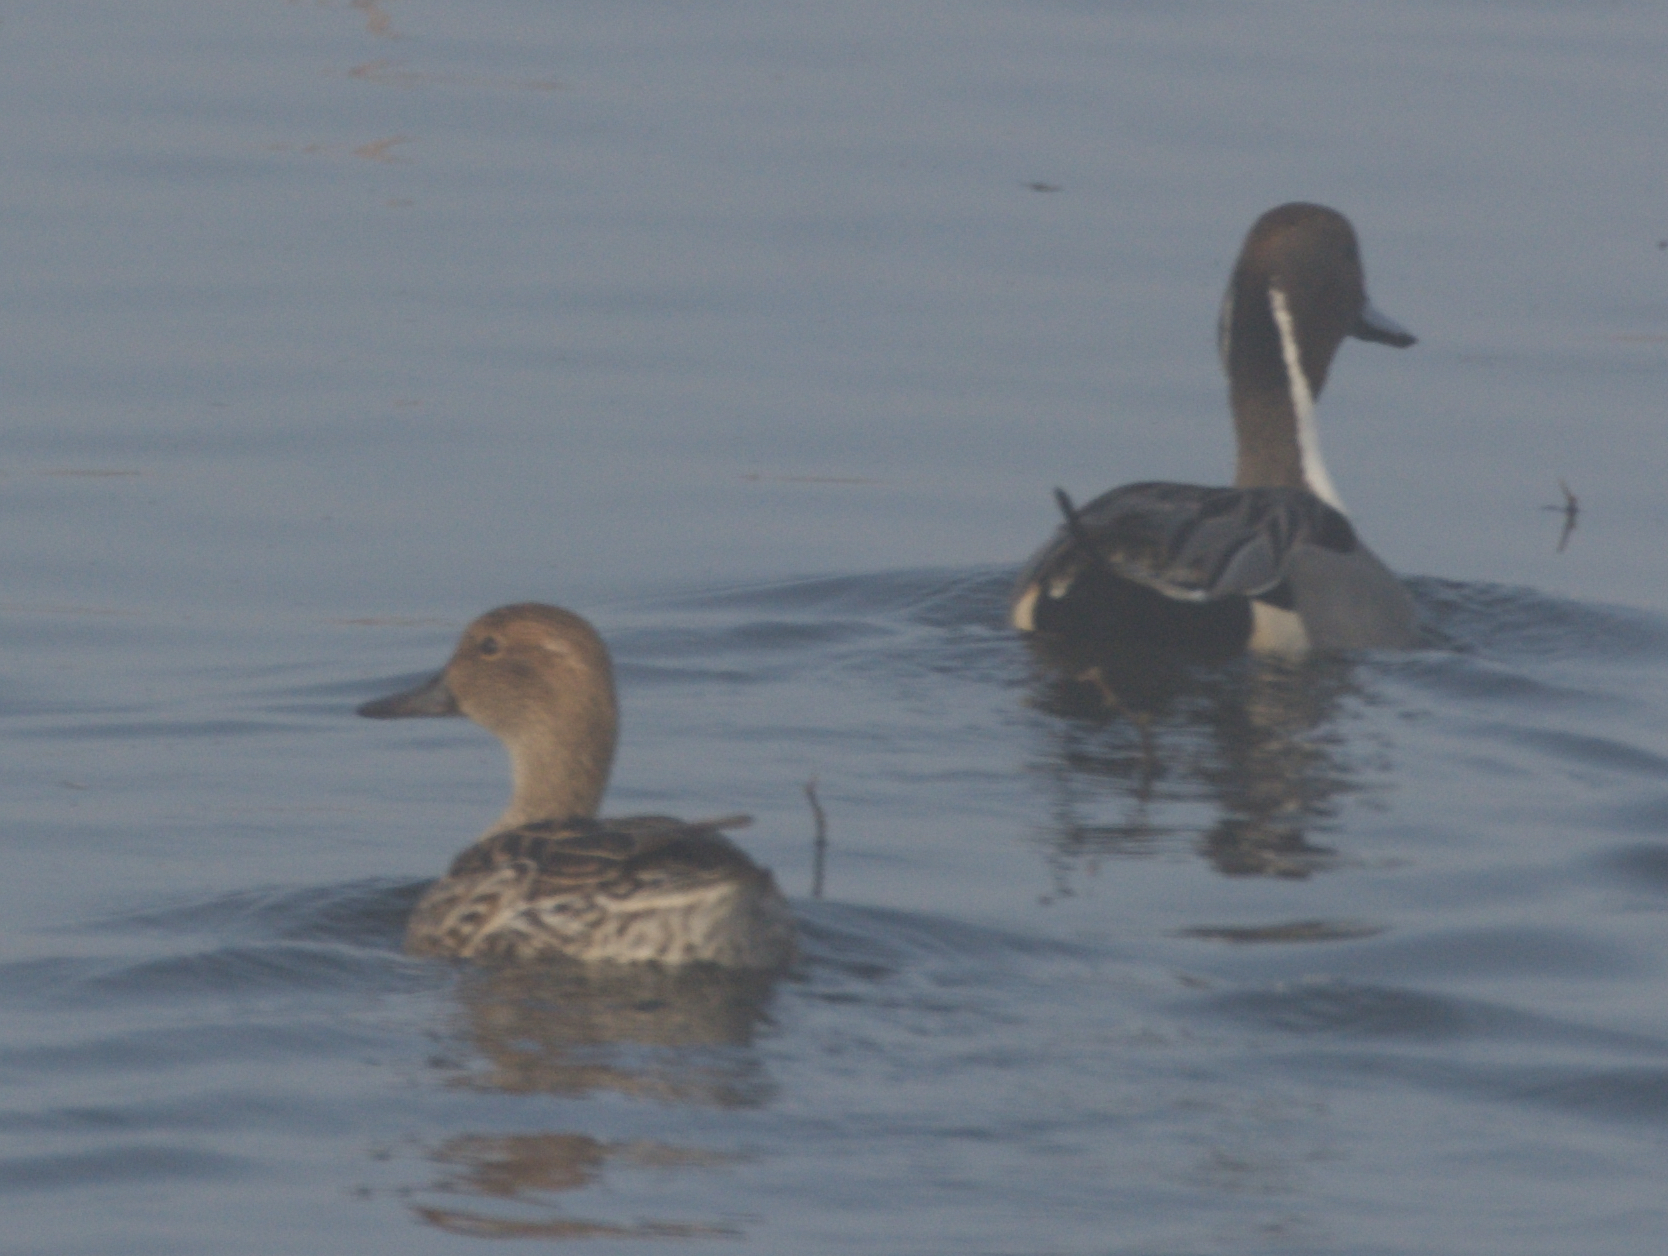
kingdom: Animalia
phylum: Chordata
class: Aves
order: Anseriformes
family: Anatidae
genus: Anas
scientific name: Anas acuta
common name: Northern pintail
